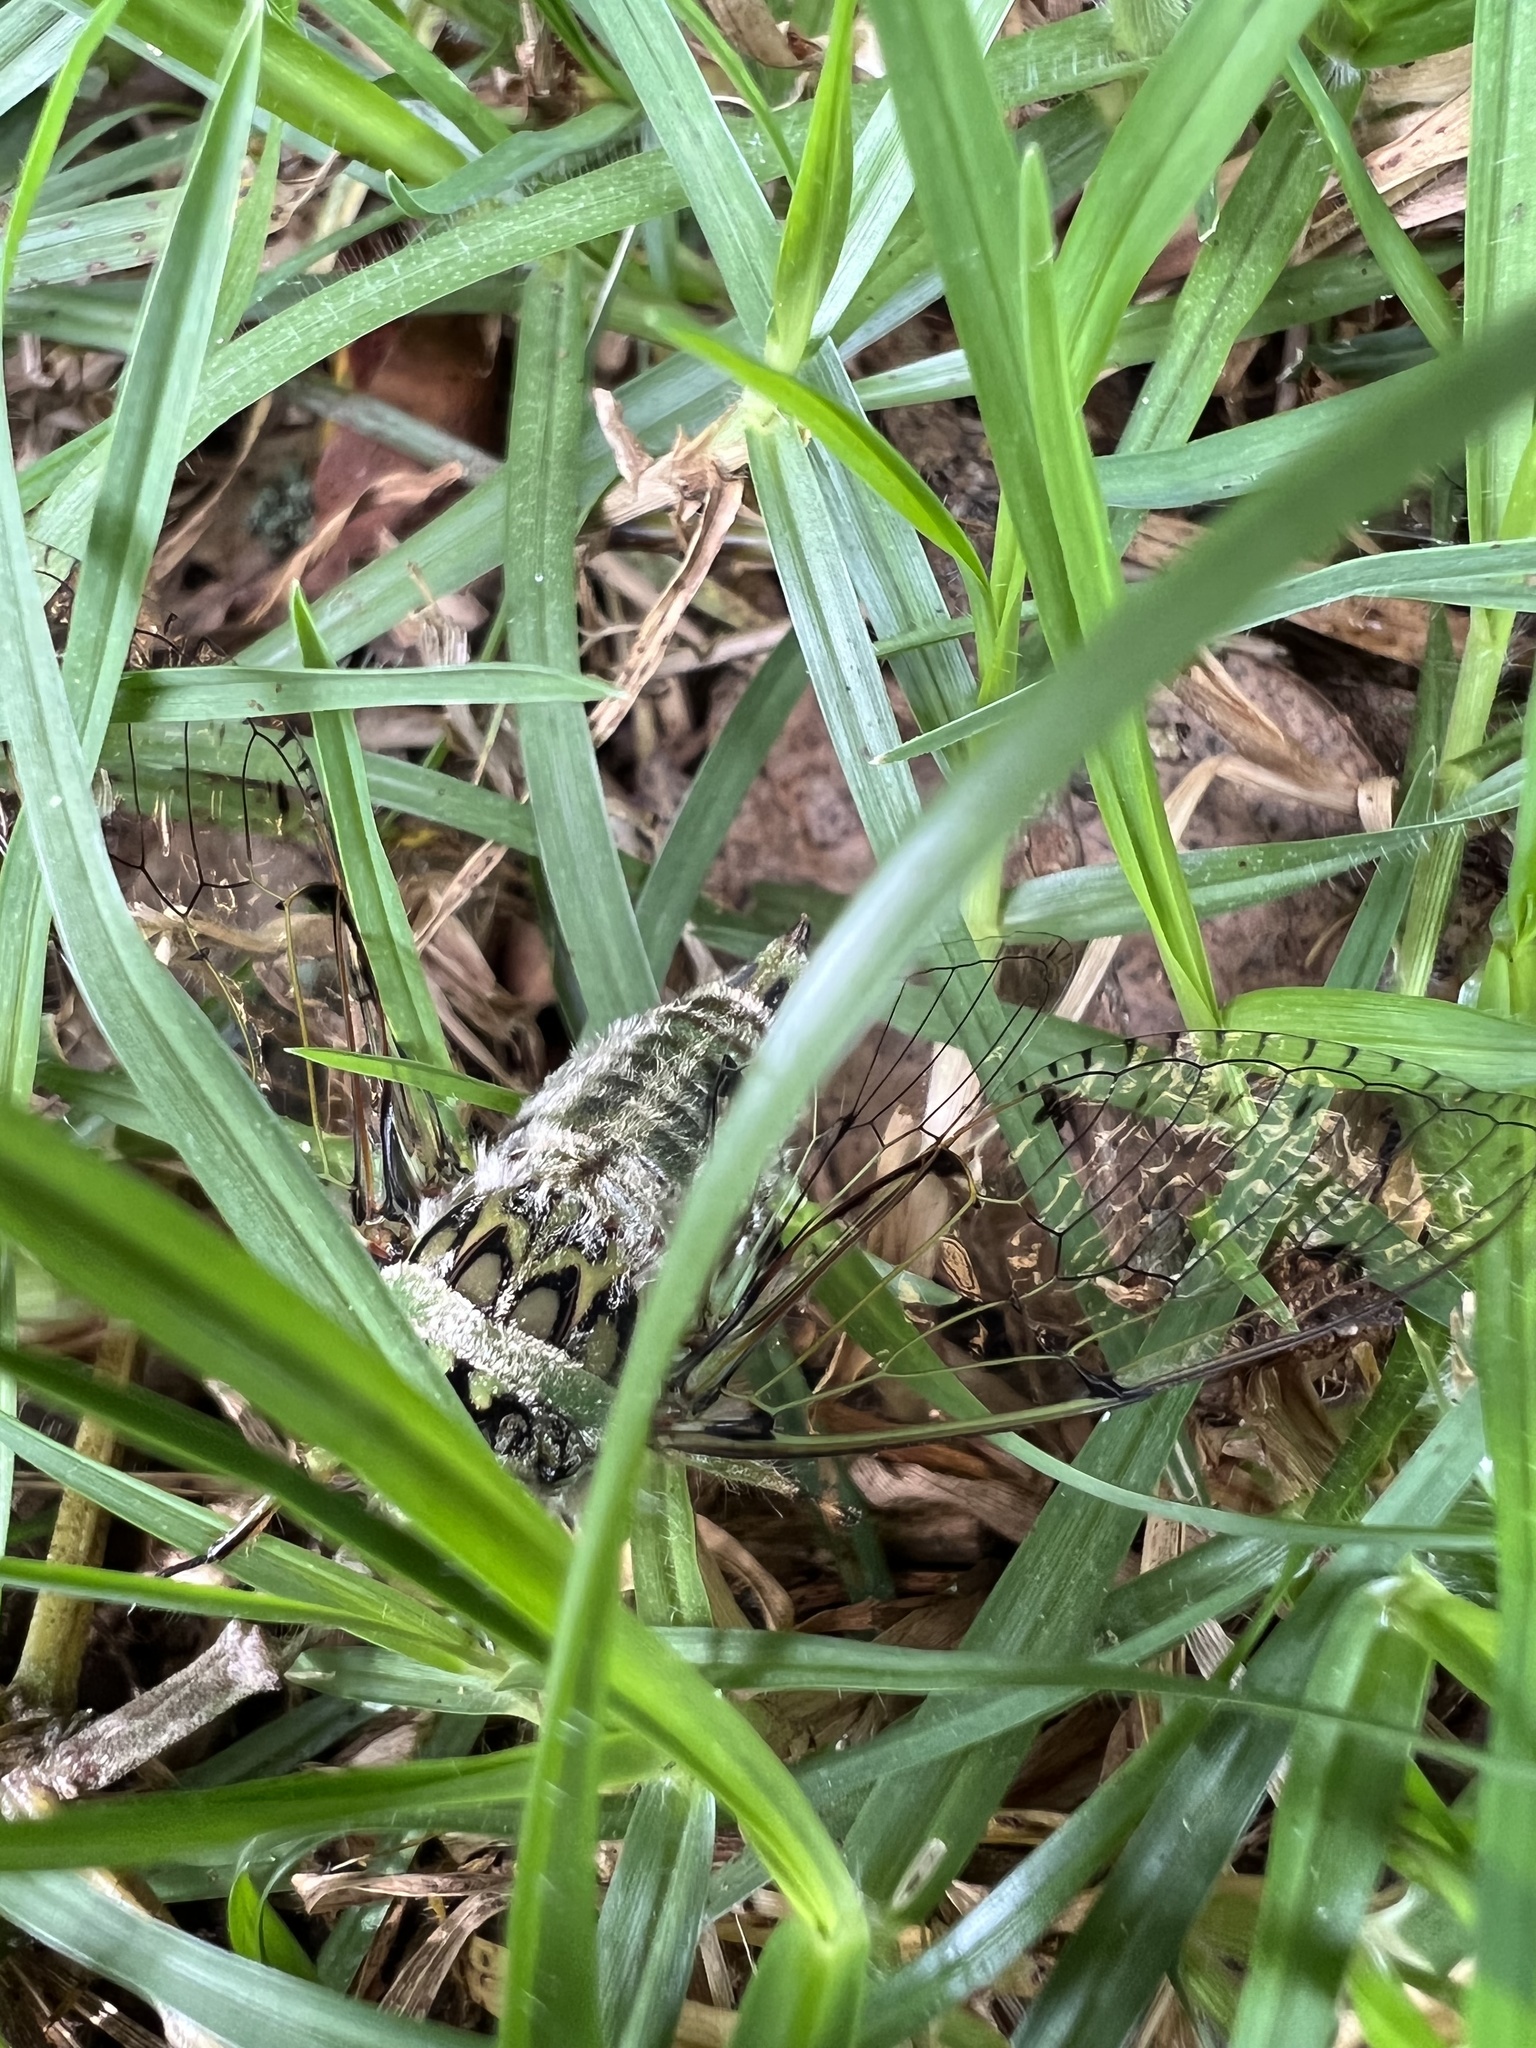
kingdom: Animalia
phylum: Arthropoda
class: Insecta
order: Hemiptera
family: Cicadidae
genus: Carineta
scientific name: Carineta trivittata
